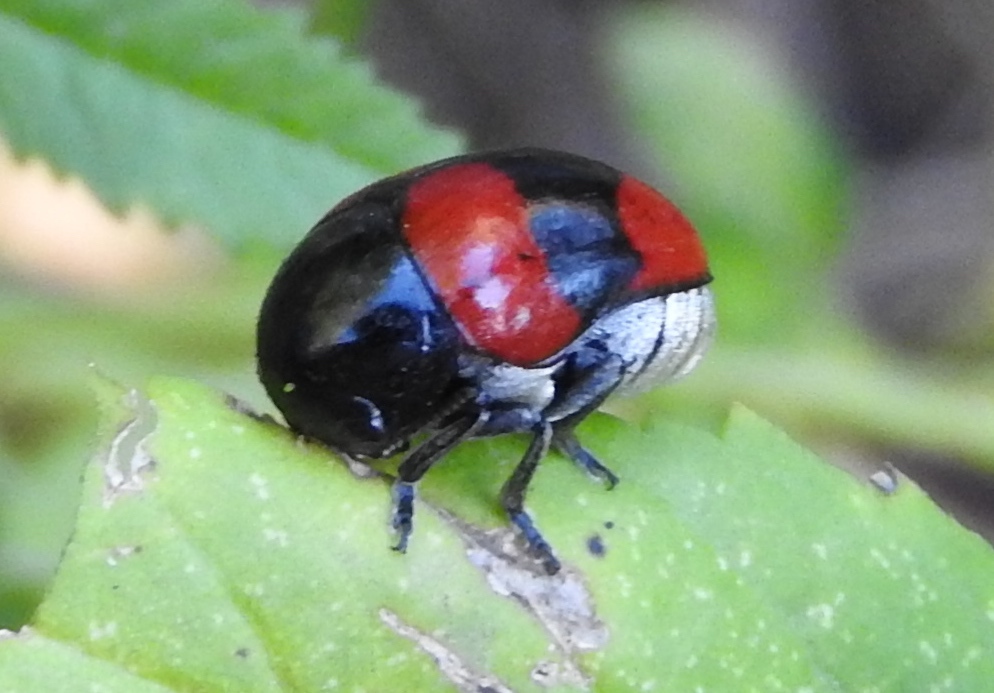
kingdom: Animalia
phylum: Arthropoda
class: Insecta
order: Coleoptera
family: Chrysomelidae
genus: Urodera
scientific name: Urodera
